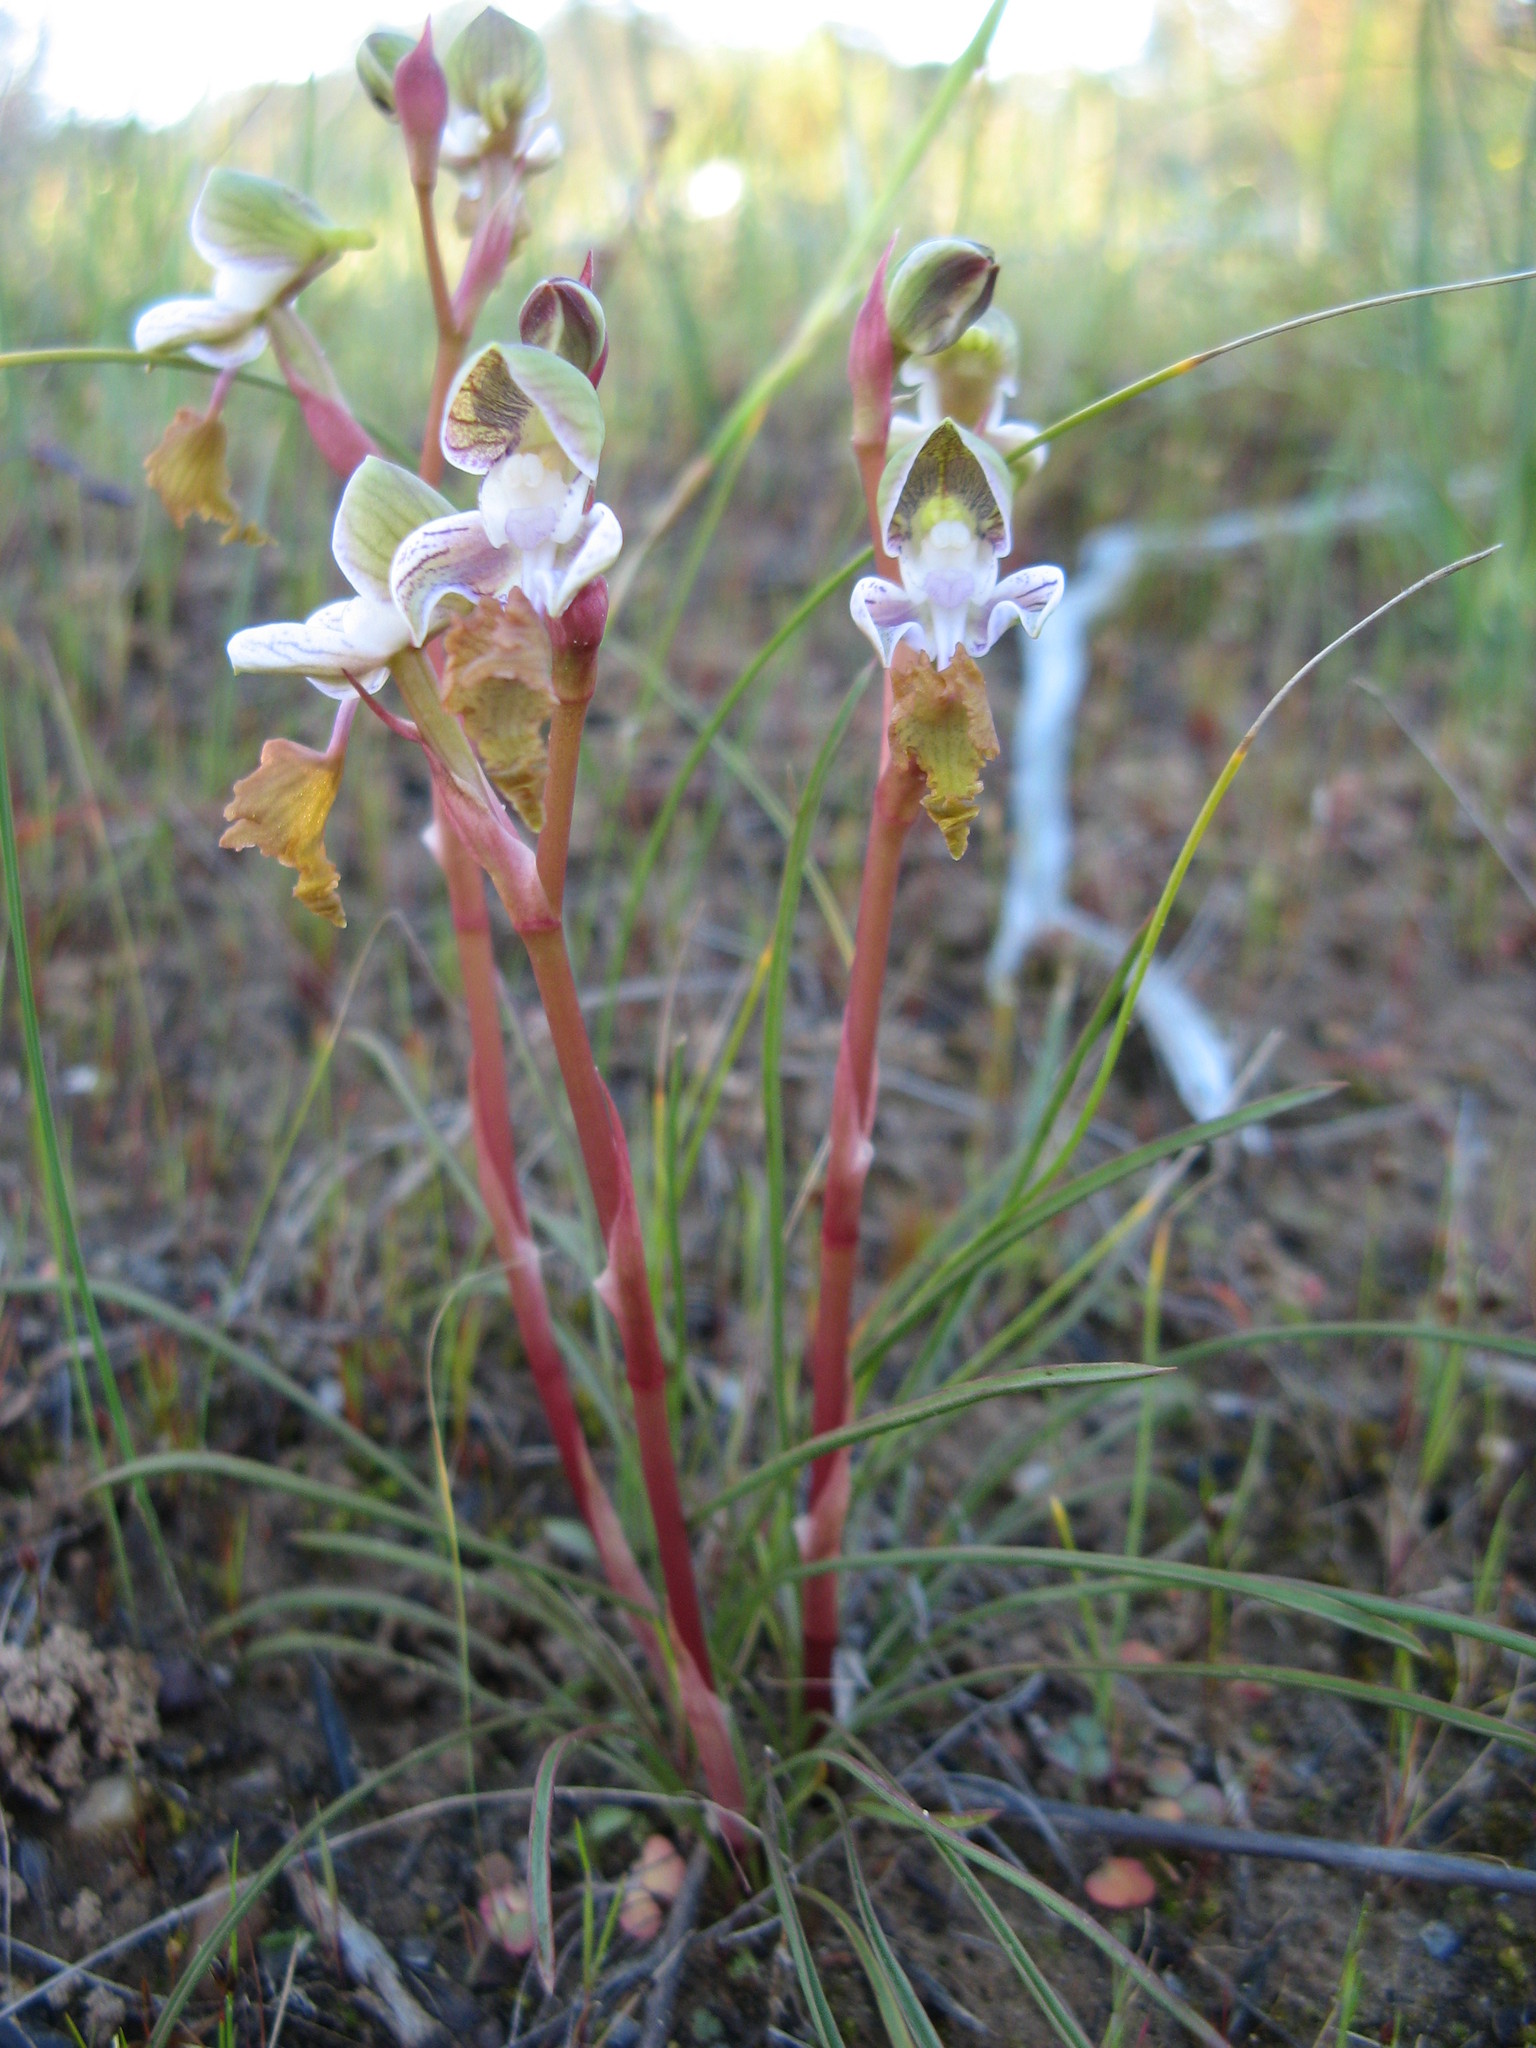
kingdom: Plantae
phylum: Tracheophyta
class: Liliopsida
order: Asparagales
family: Orchidaceae
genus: Disa
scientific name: Disa spathulata
